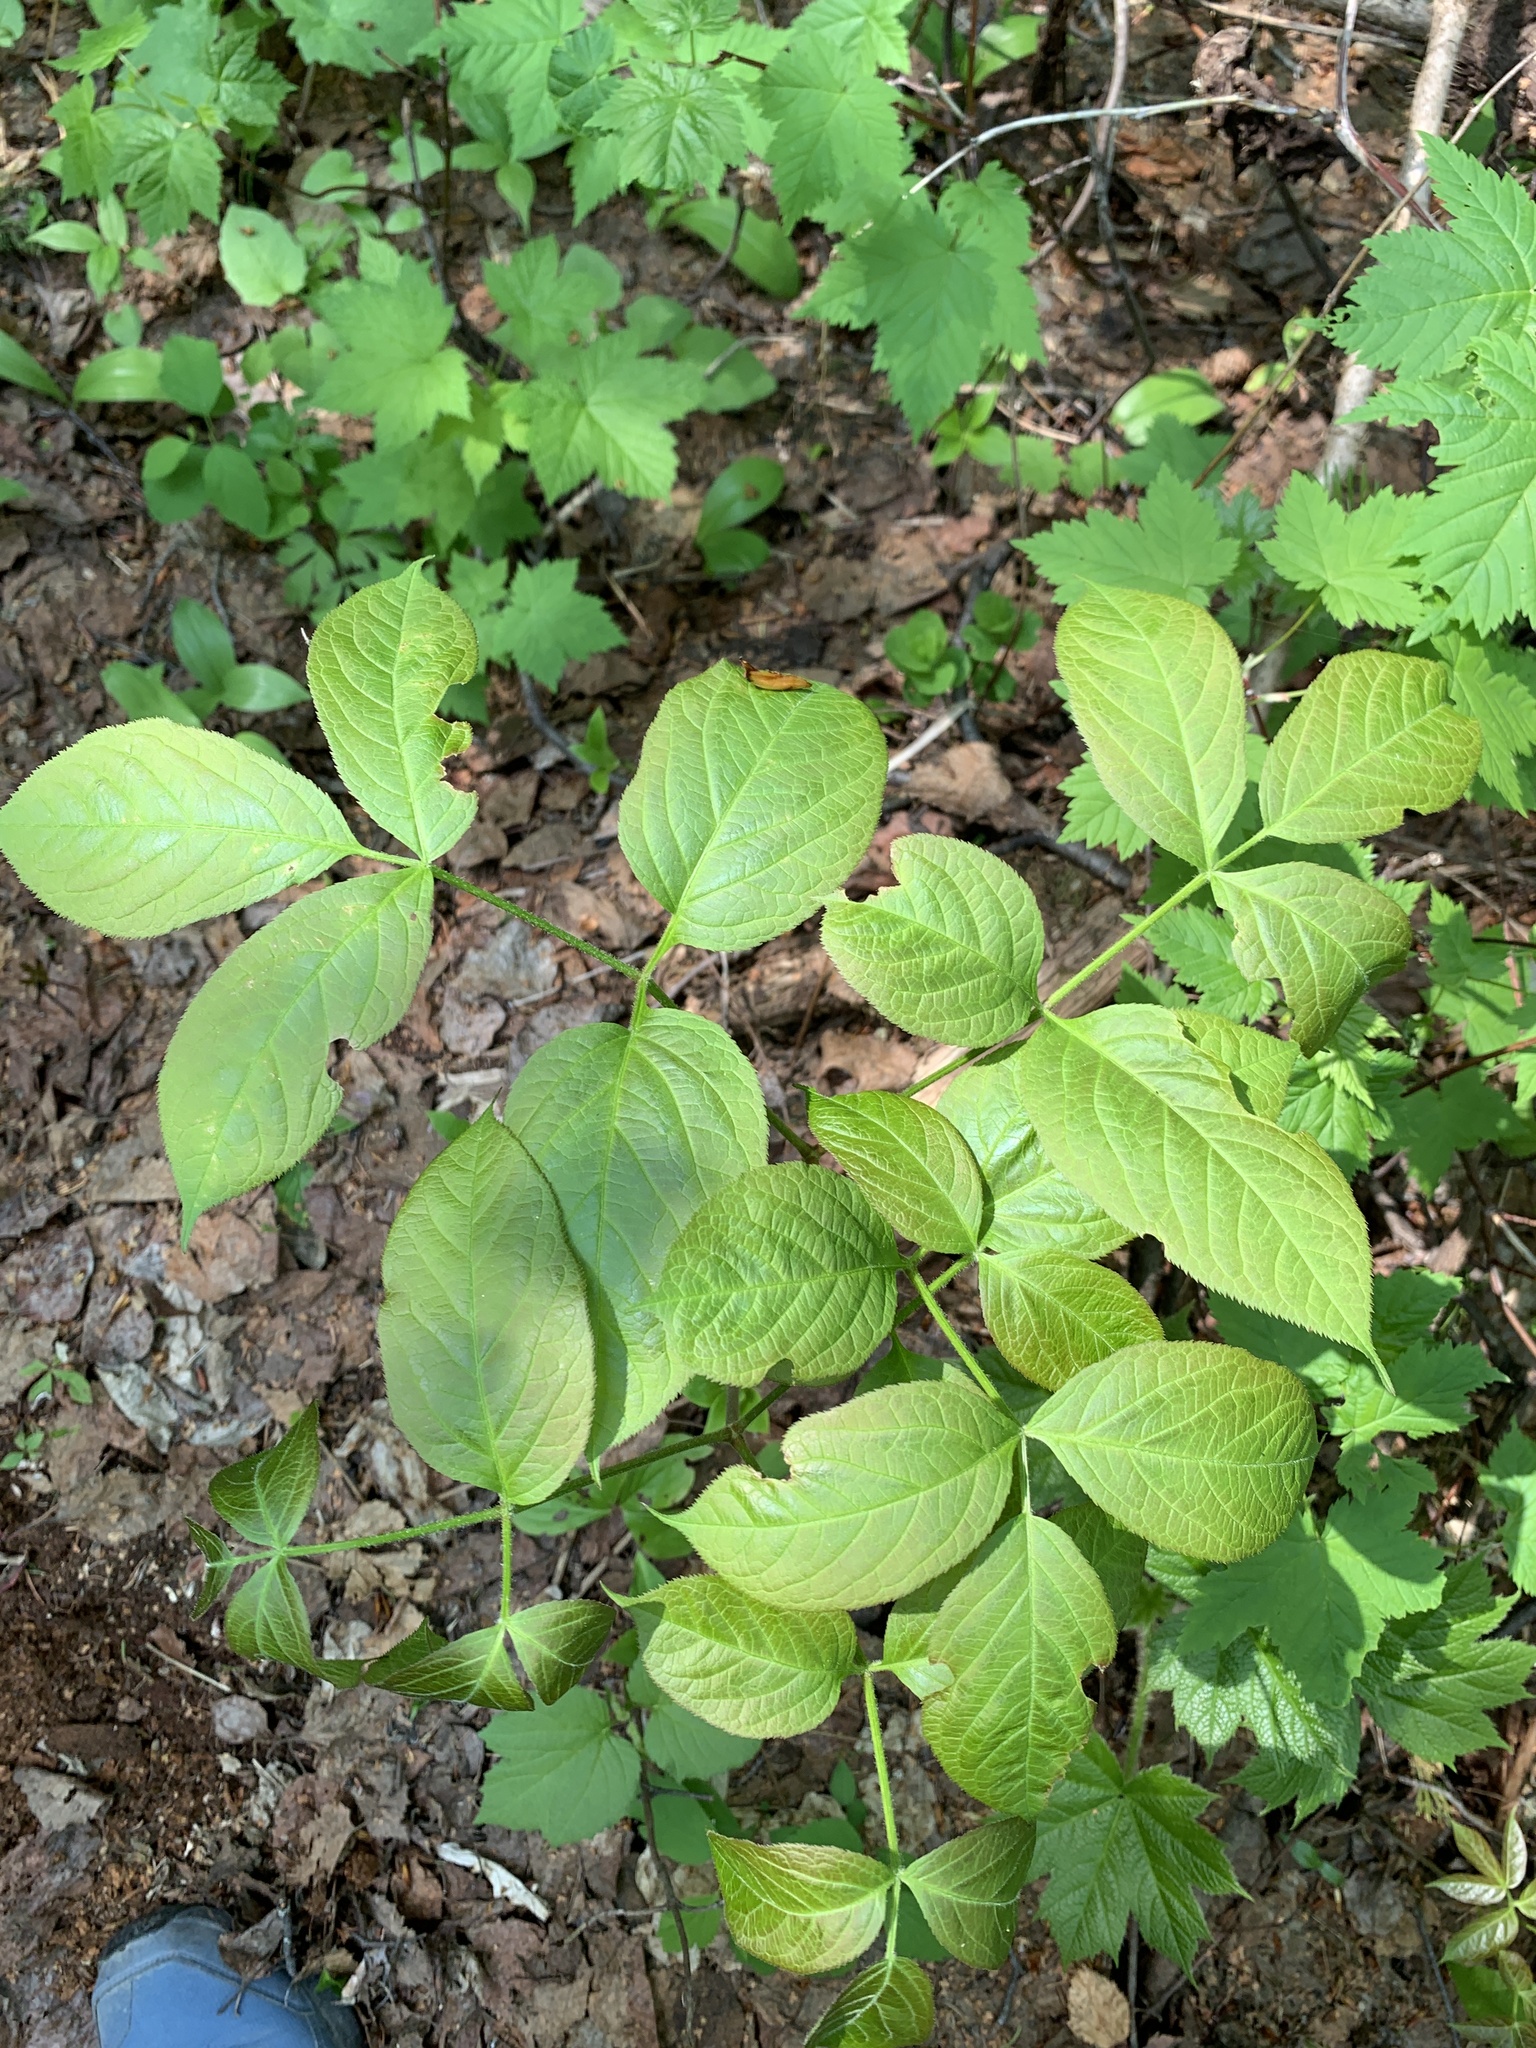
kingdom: Plantae
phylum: Tracheophyta
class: Magnoliopsida
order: Apiales
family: Araliaceae
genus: Aralia
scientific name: Aralia nudicaulis
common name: Wild sarsaparilla
